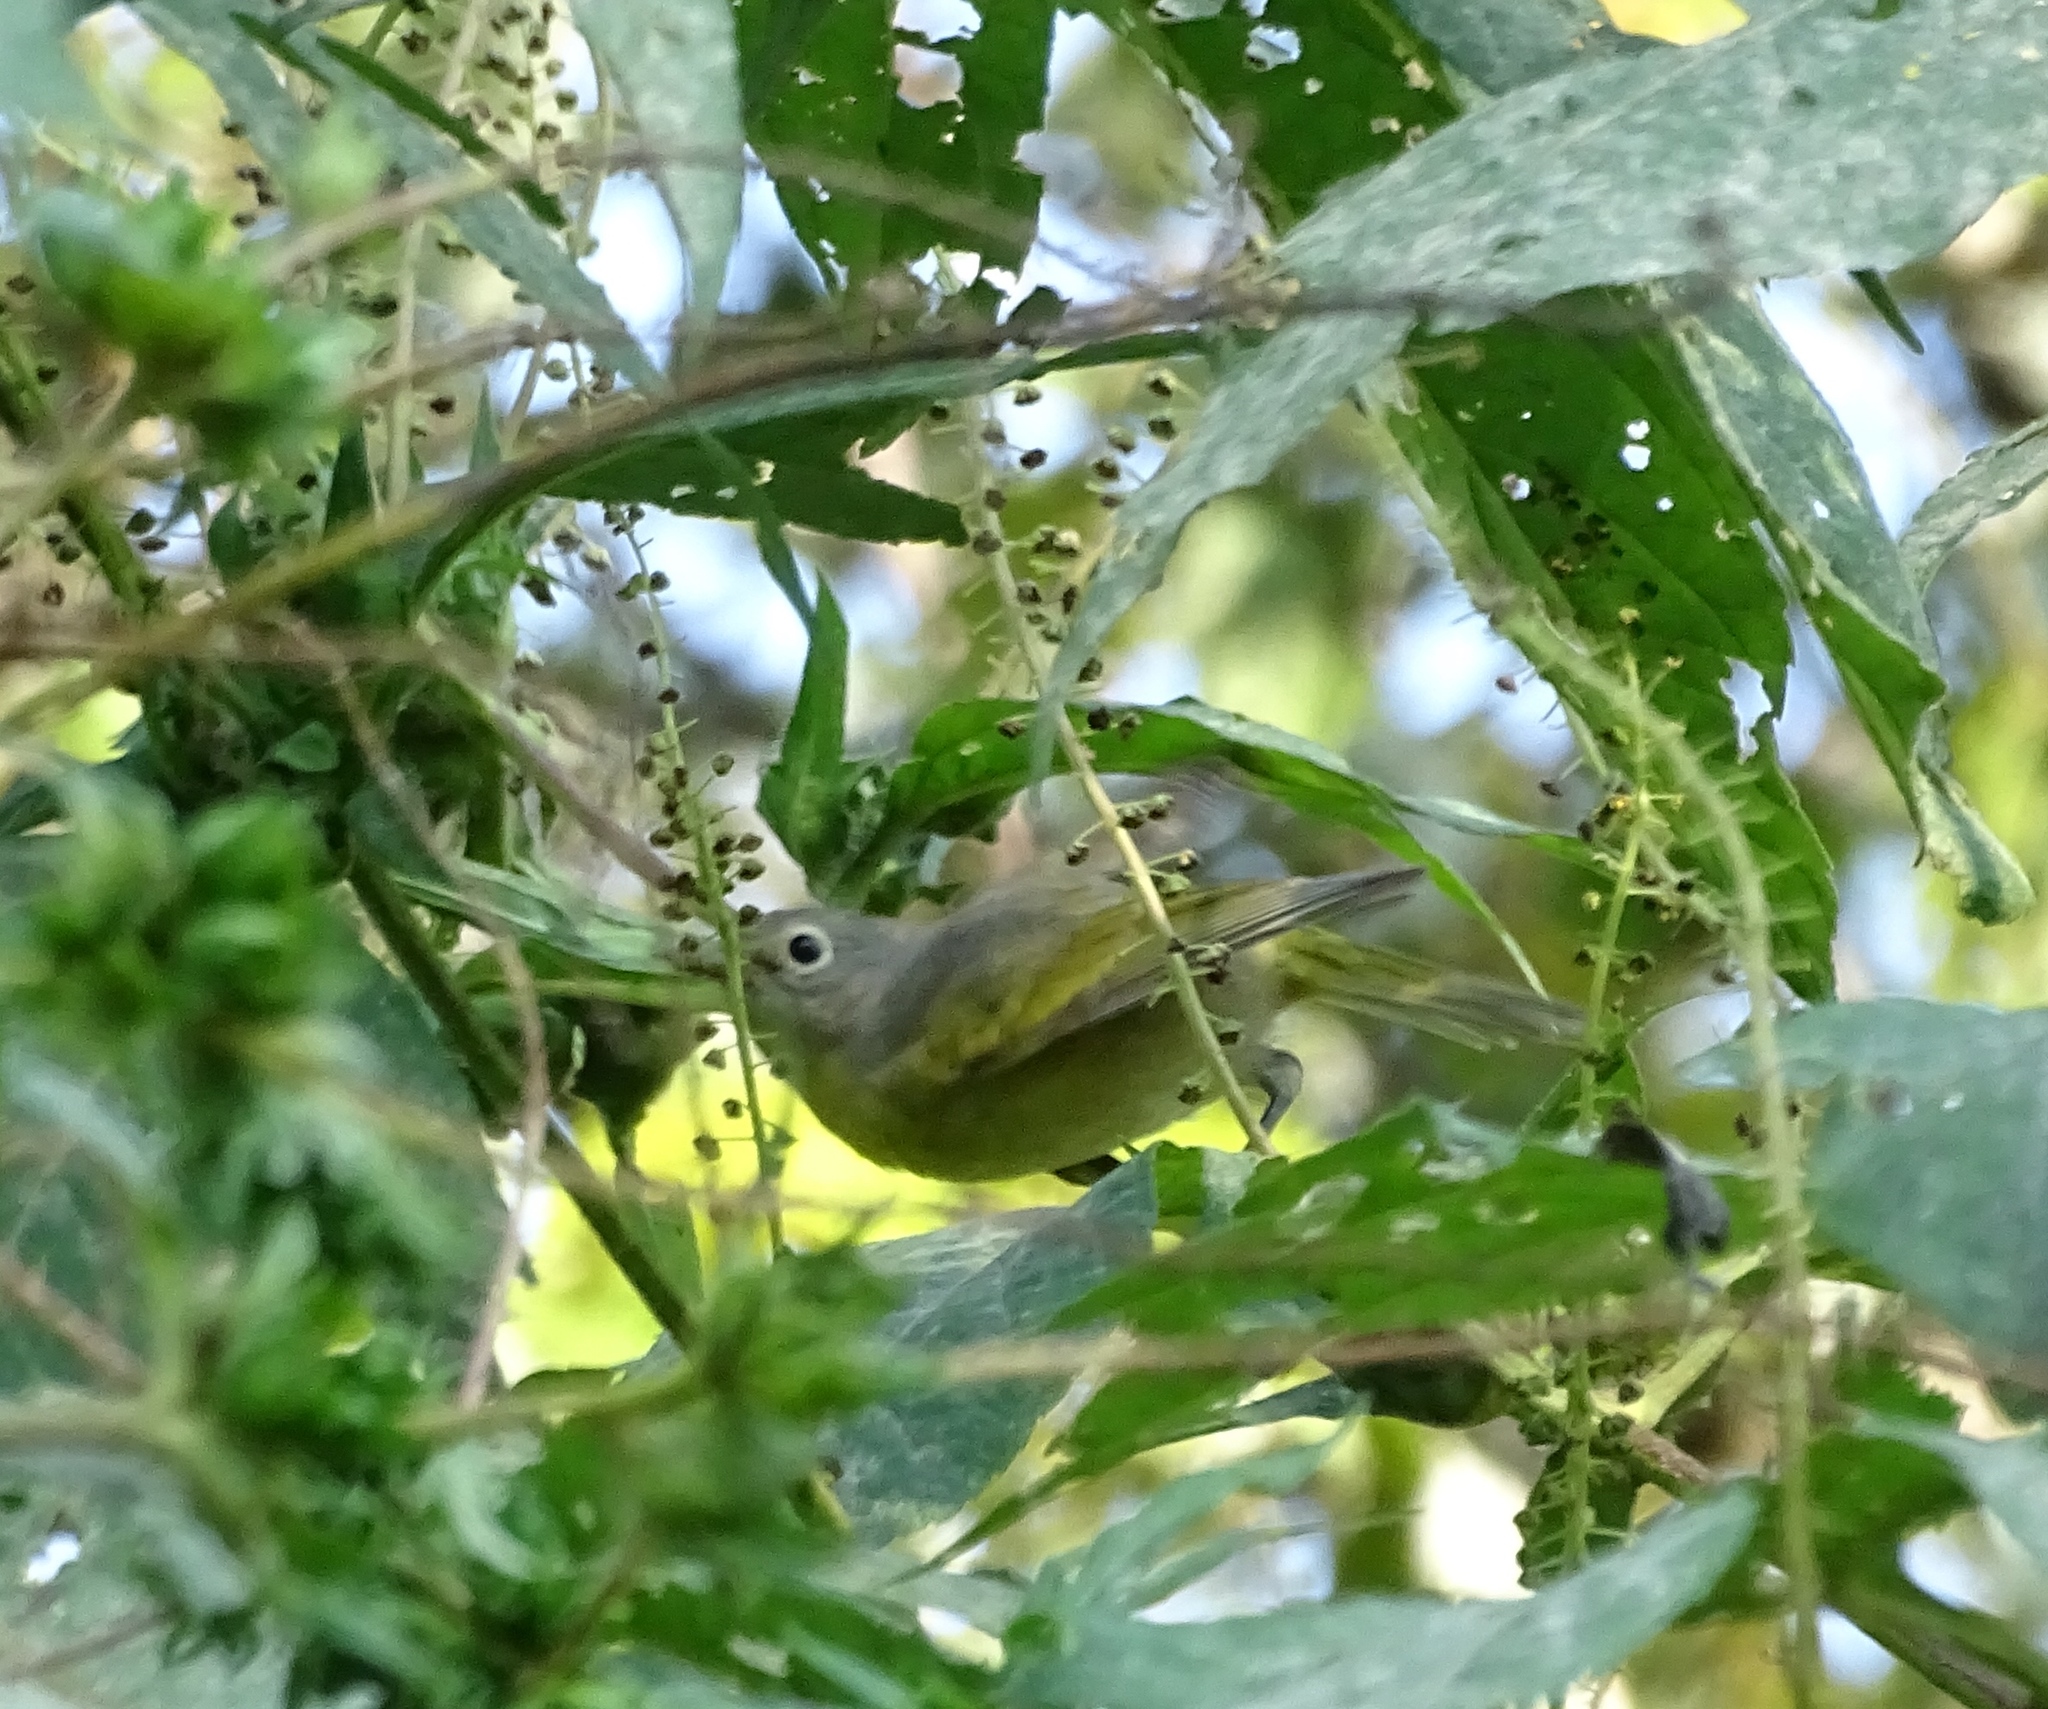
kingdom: Animalia
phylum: Chordata
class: Aves
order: Passeriformes
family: Parulidae
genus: Leiothlypis
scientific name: Leiothlypis ruficapilla
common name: Nashville warbler
